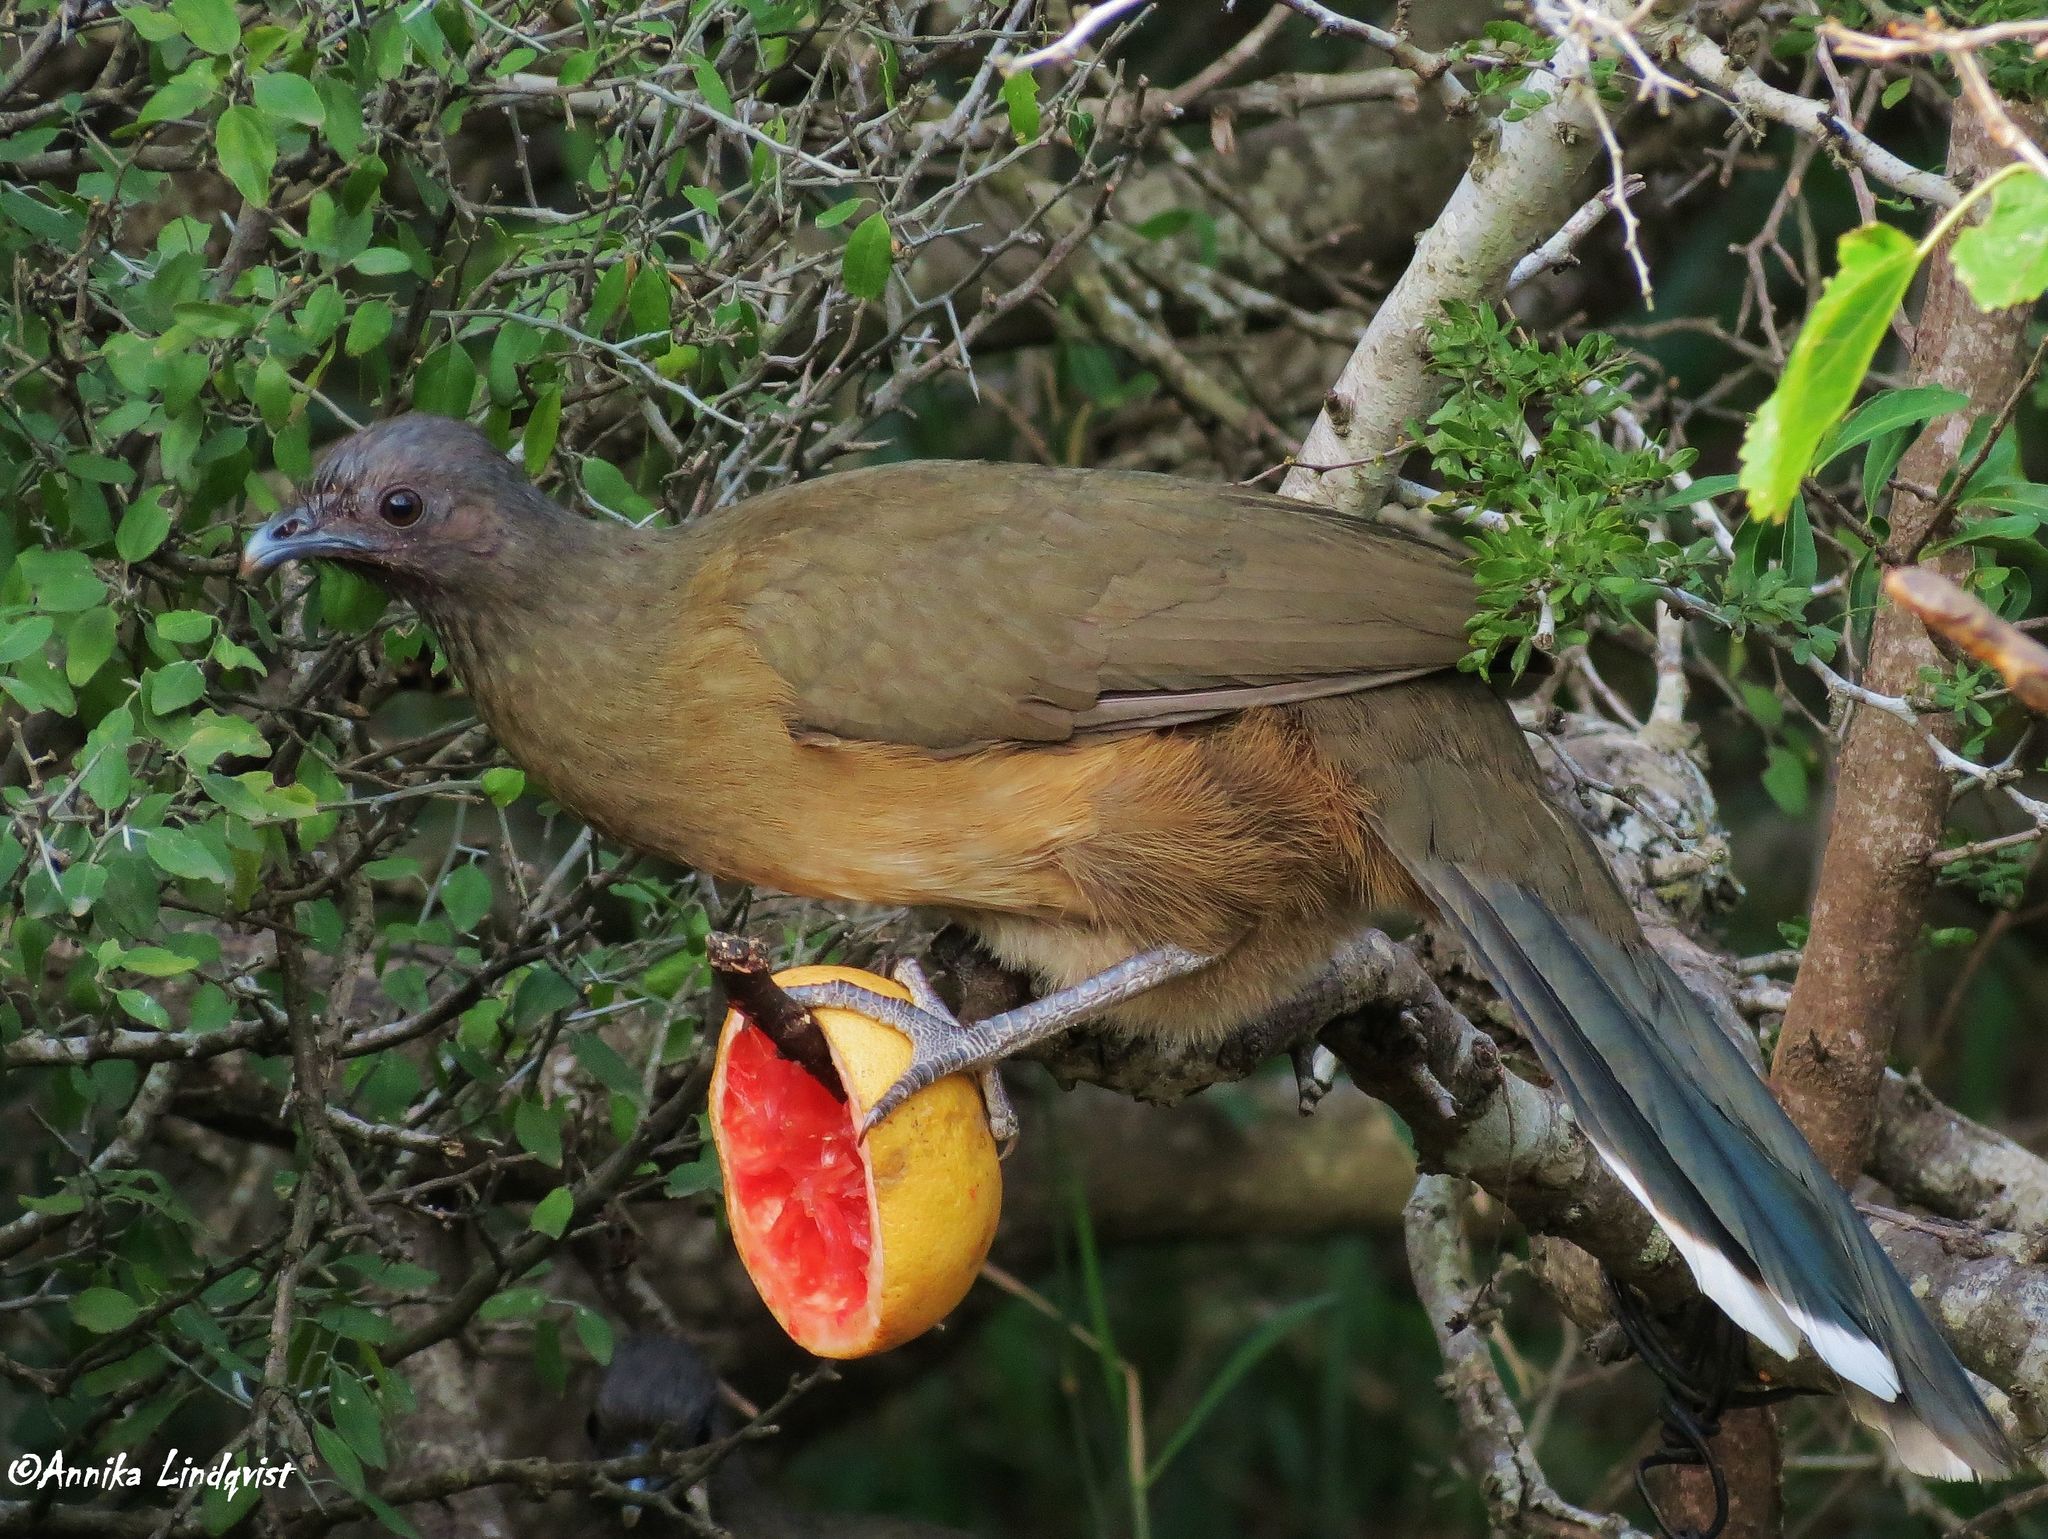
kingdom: Animalia
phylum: Chordata
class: Aves
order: Galliformes
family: Cracidae
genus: Ortalis
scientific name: Ortalis vetula
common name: Plain chachalaca
